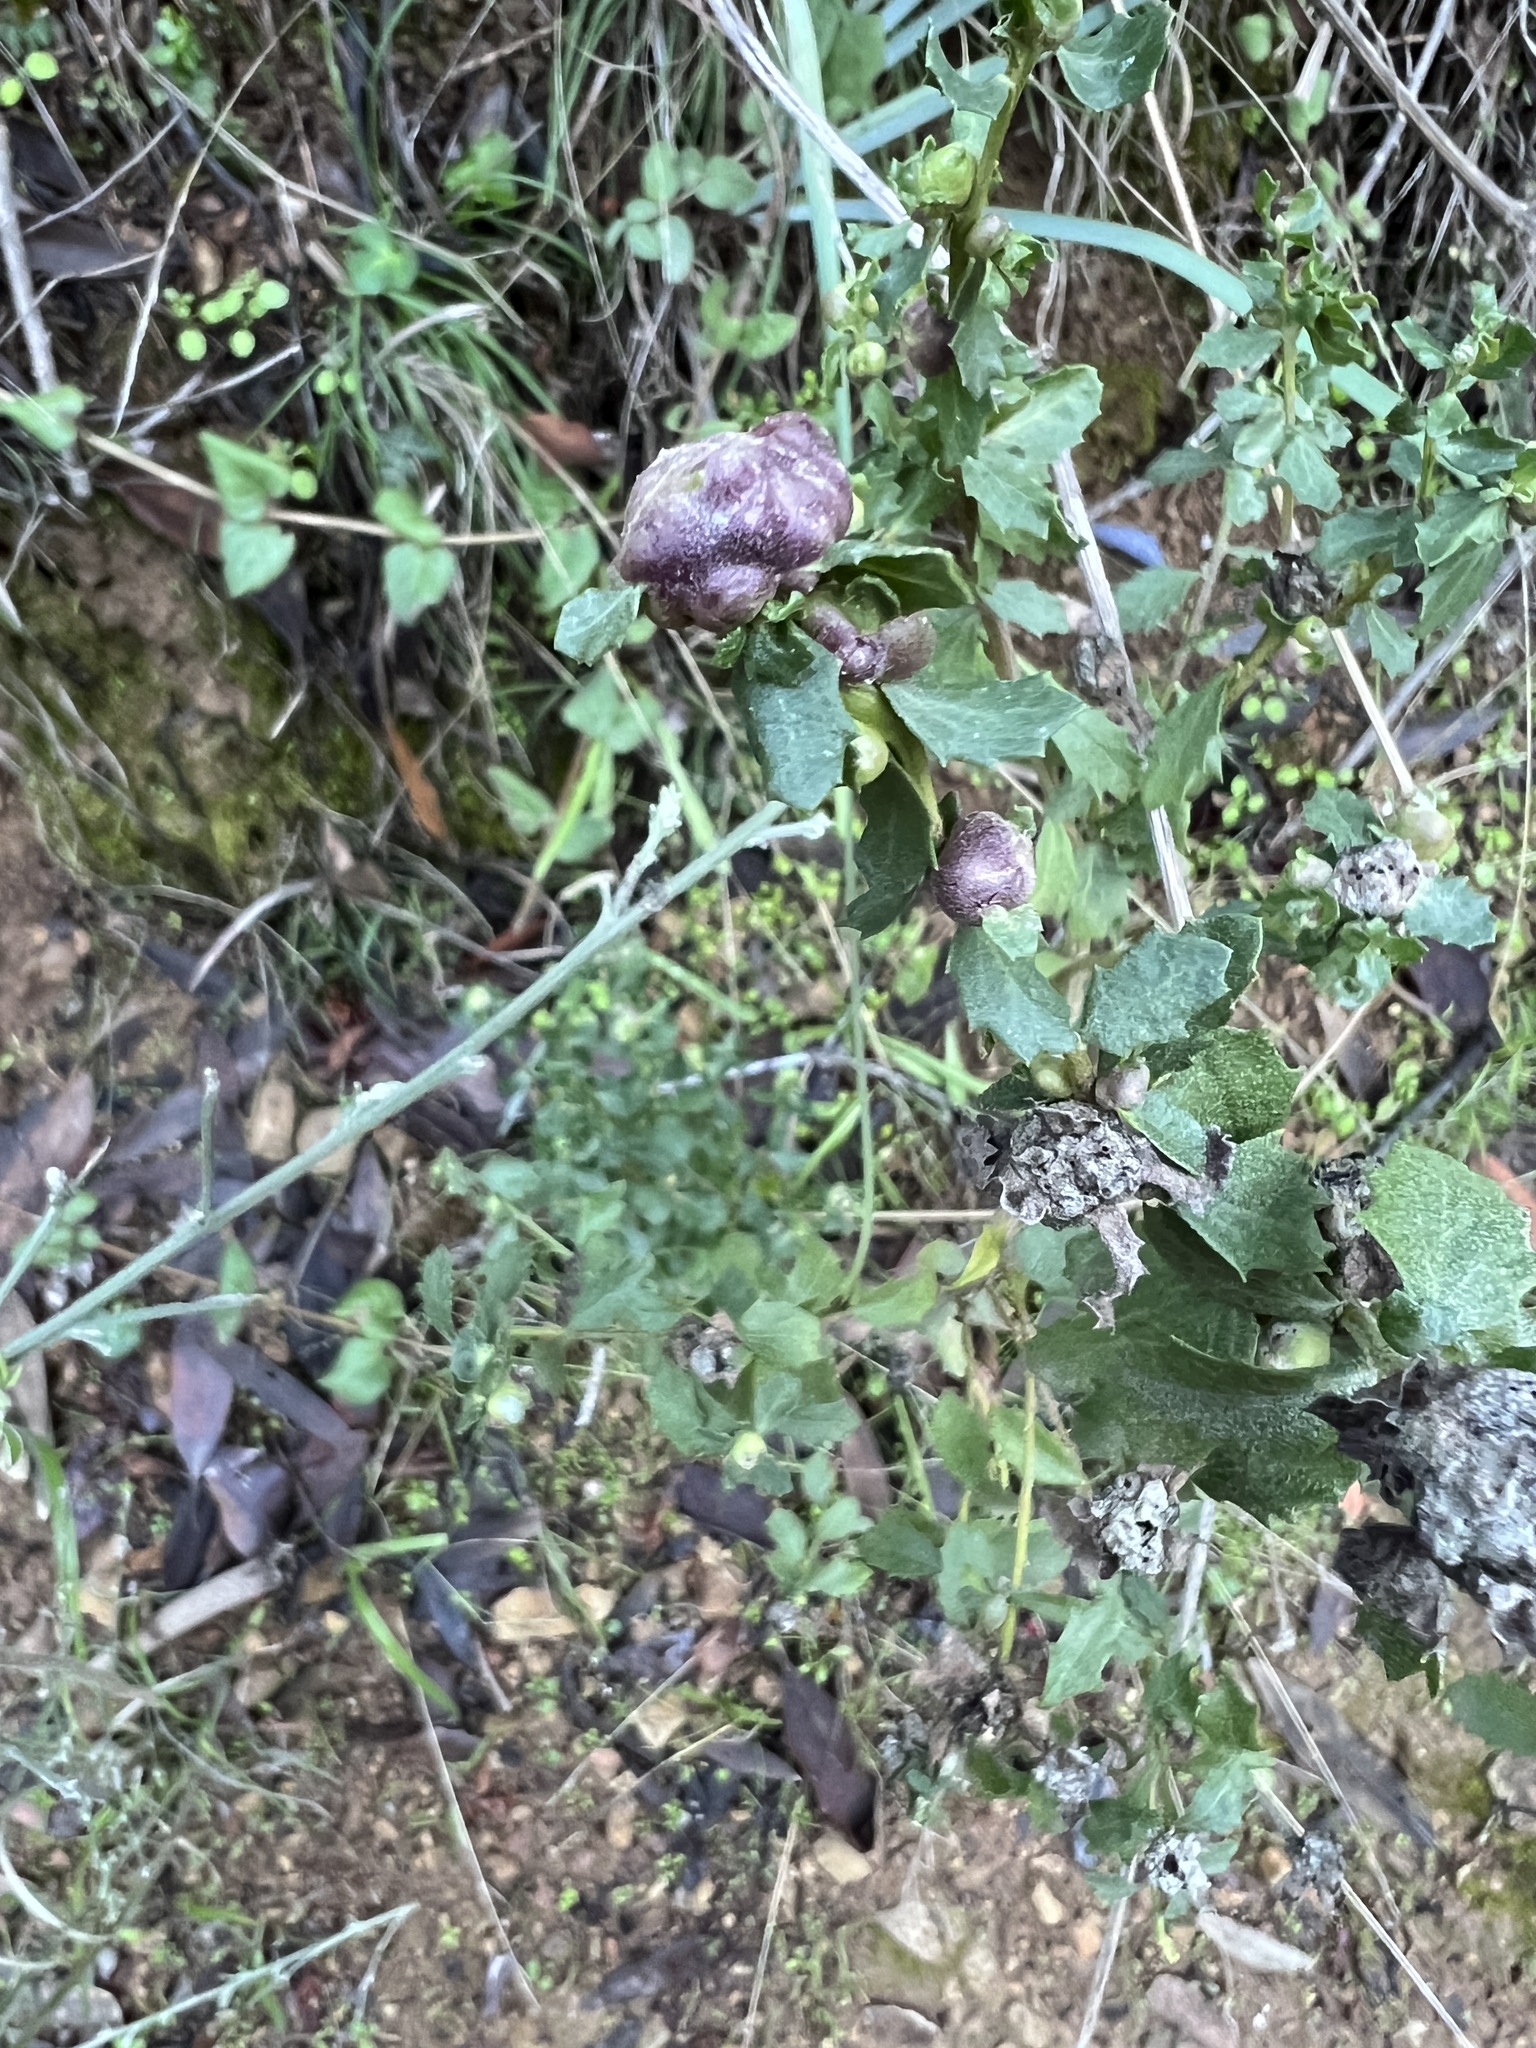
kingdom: Animalia
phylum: Arthropoda
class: Insecta
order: Diptera
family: Cecidomyiidae
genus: Rhopalomyia
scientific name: Rhopalomyia californica
